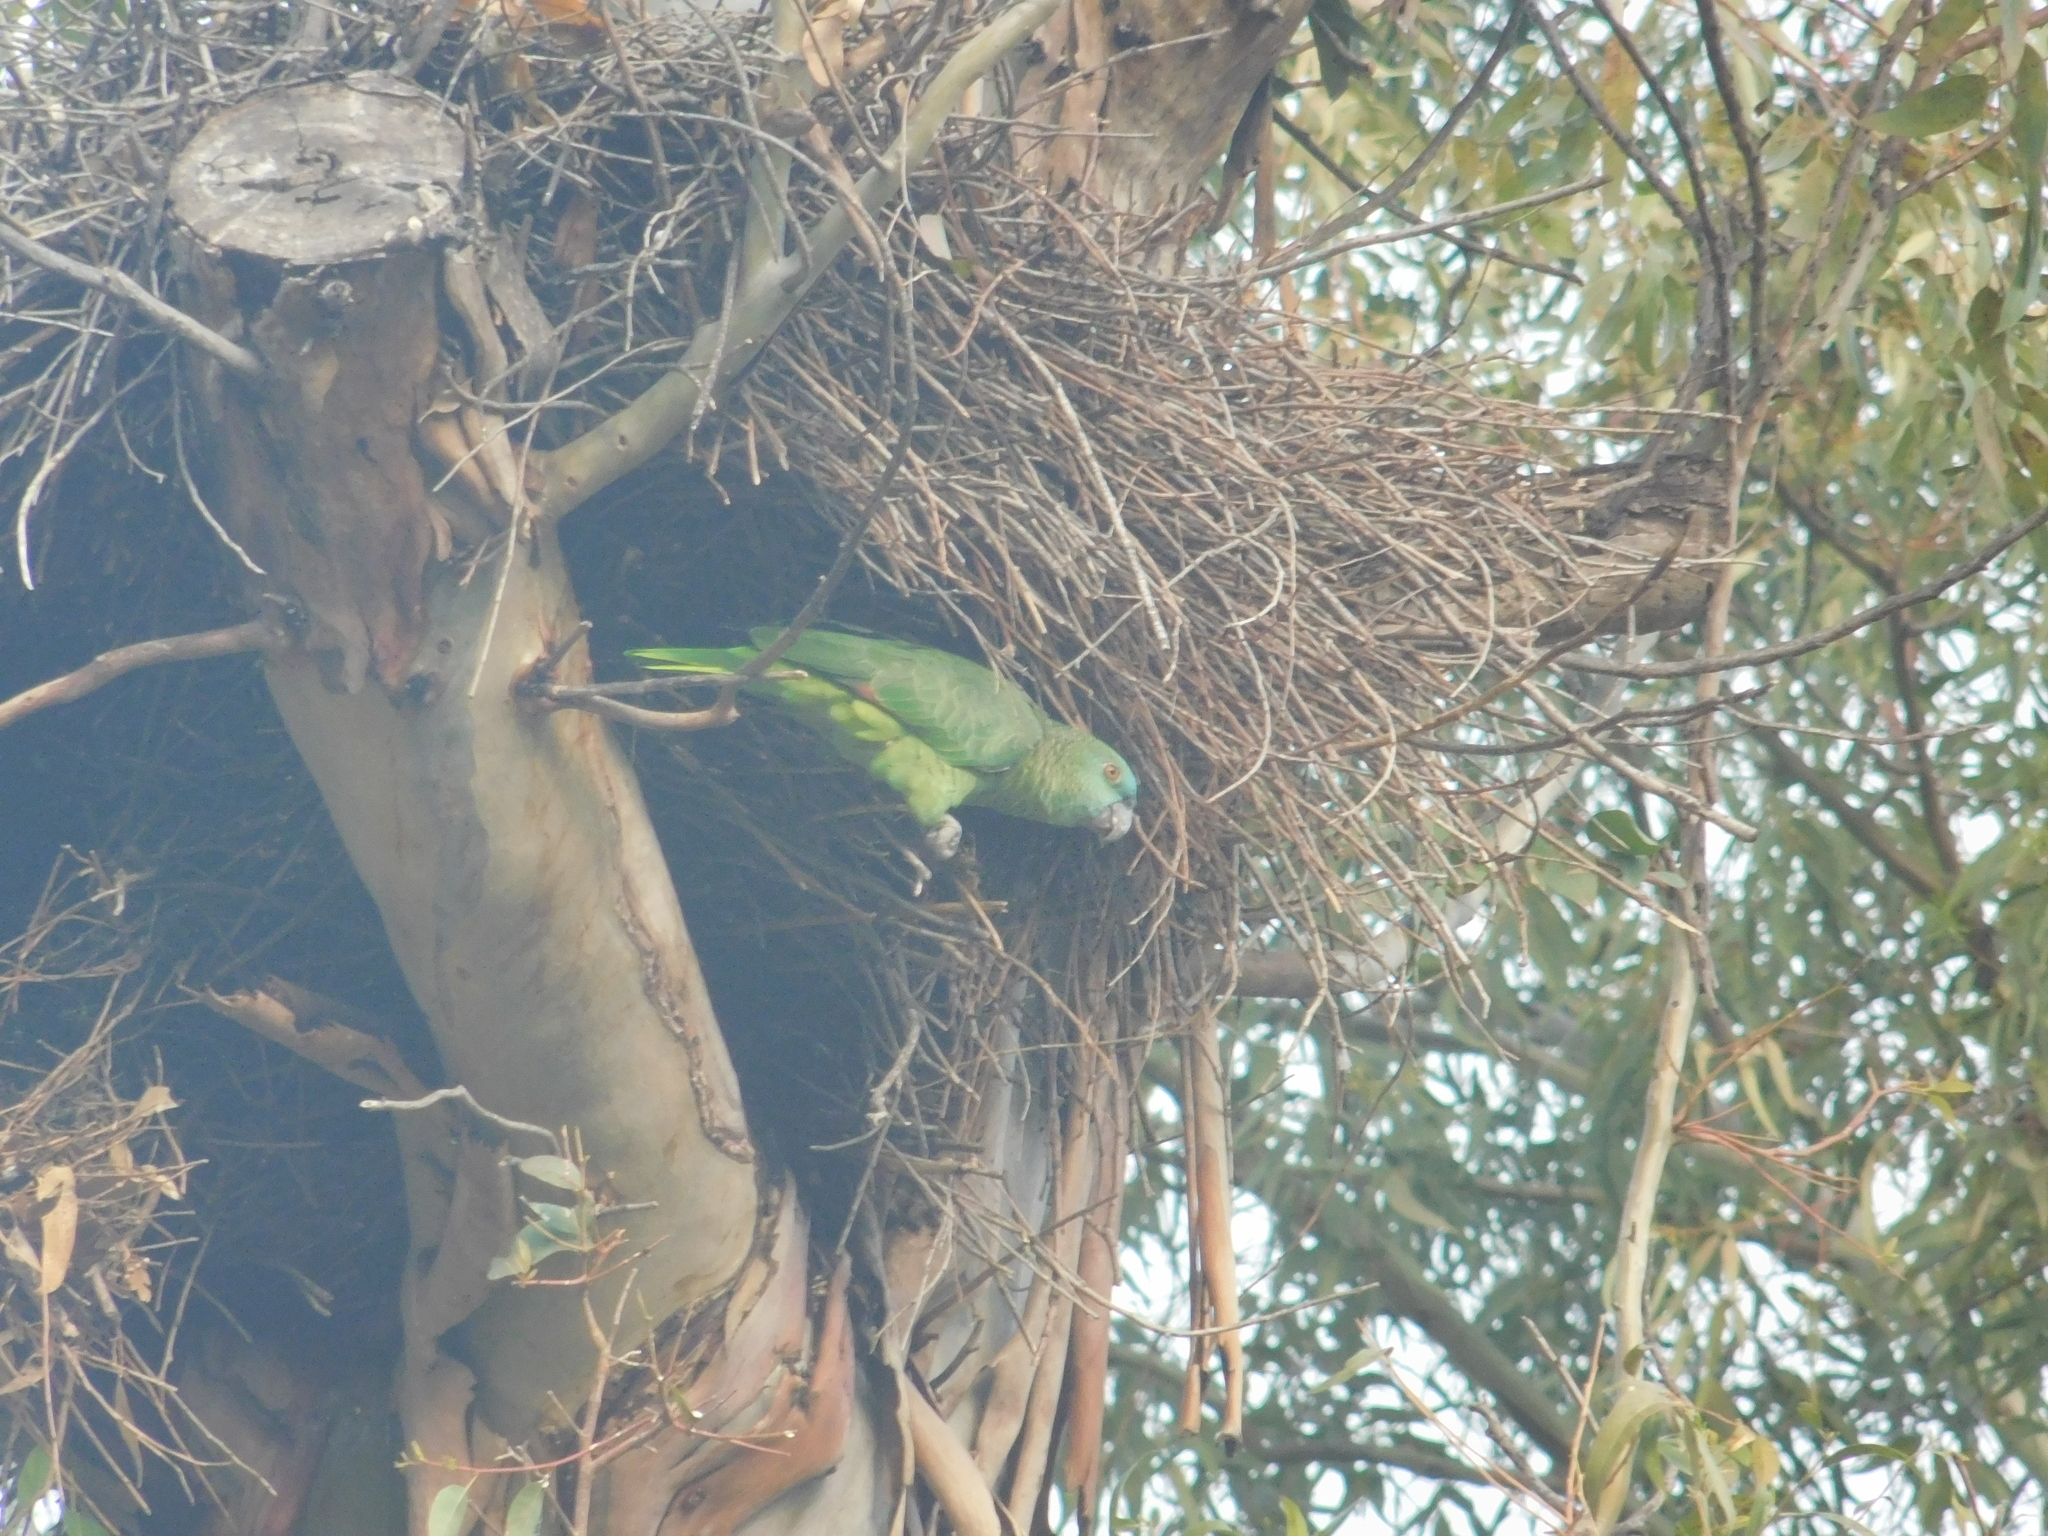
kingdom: Animalia
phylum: Chordata
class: Aves
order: Psittaciformes
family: Psittacidae
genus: Amazona
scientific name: Amazona aestiva
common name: Turquoise-fronted amazon
